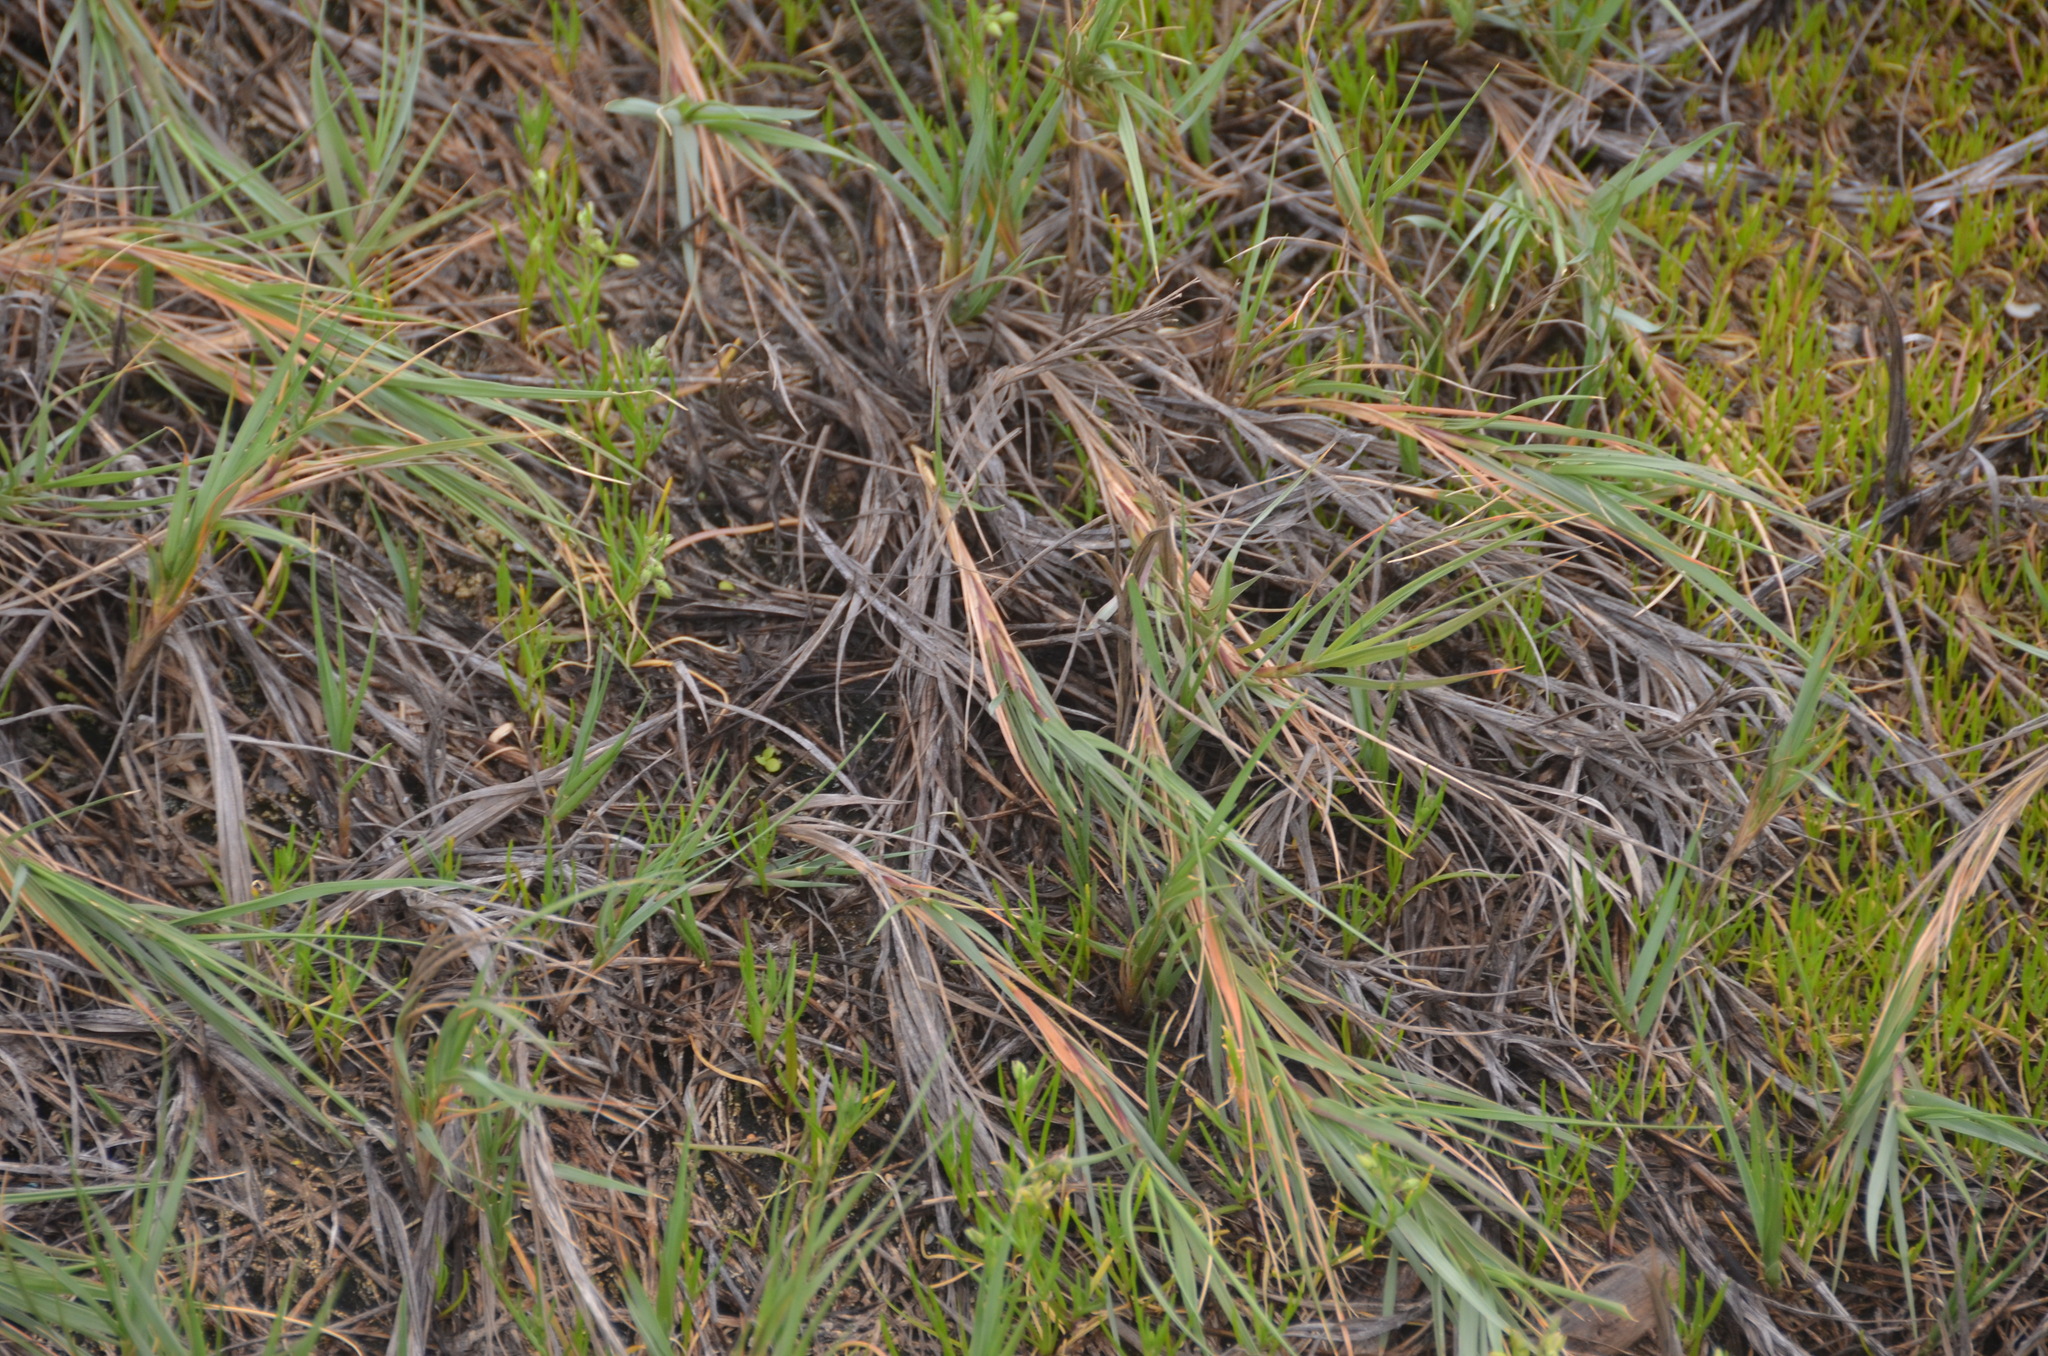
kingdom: Plantae
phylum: Tracheophyta
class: Liliopsida
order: Poales
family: Poaceae
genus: Sporobolus
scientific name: Sporobolus virginicus
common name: Beach dropseed
